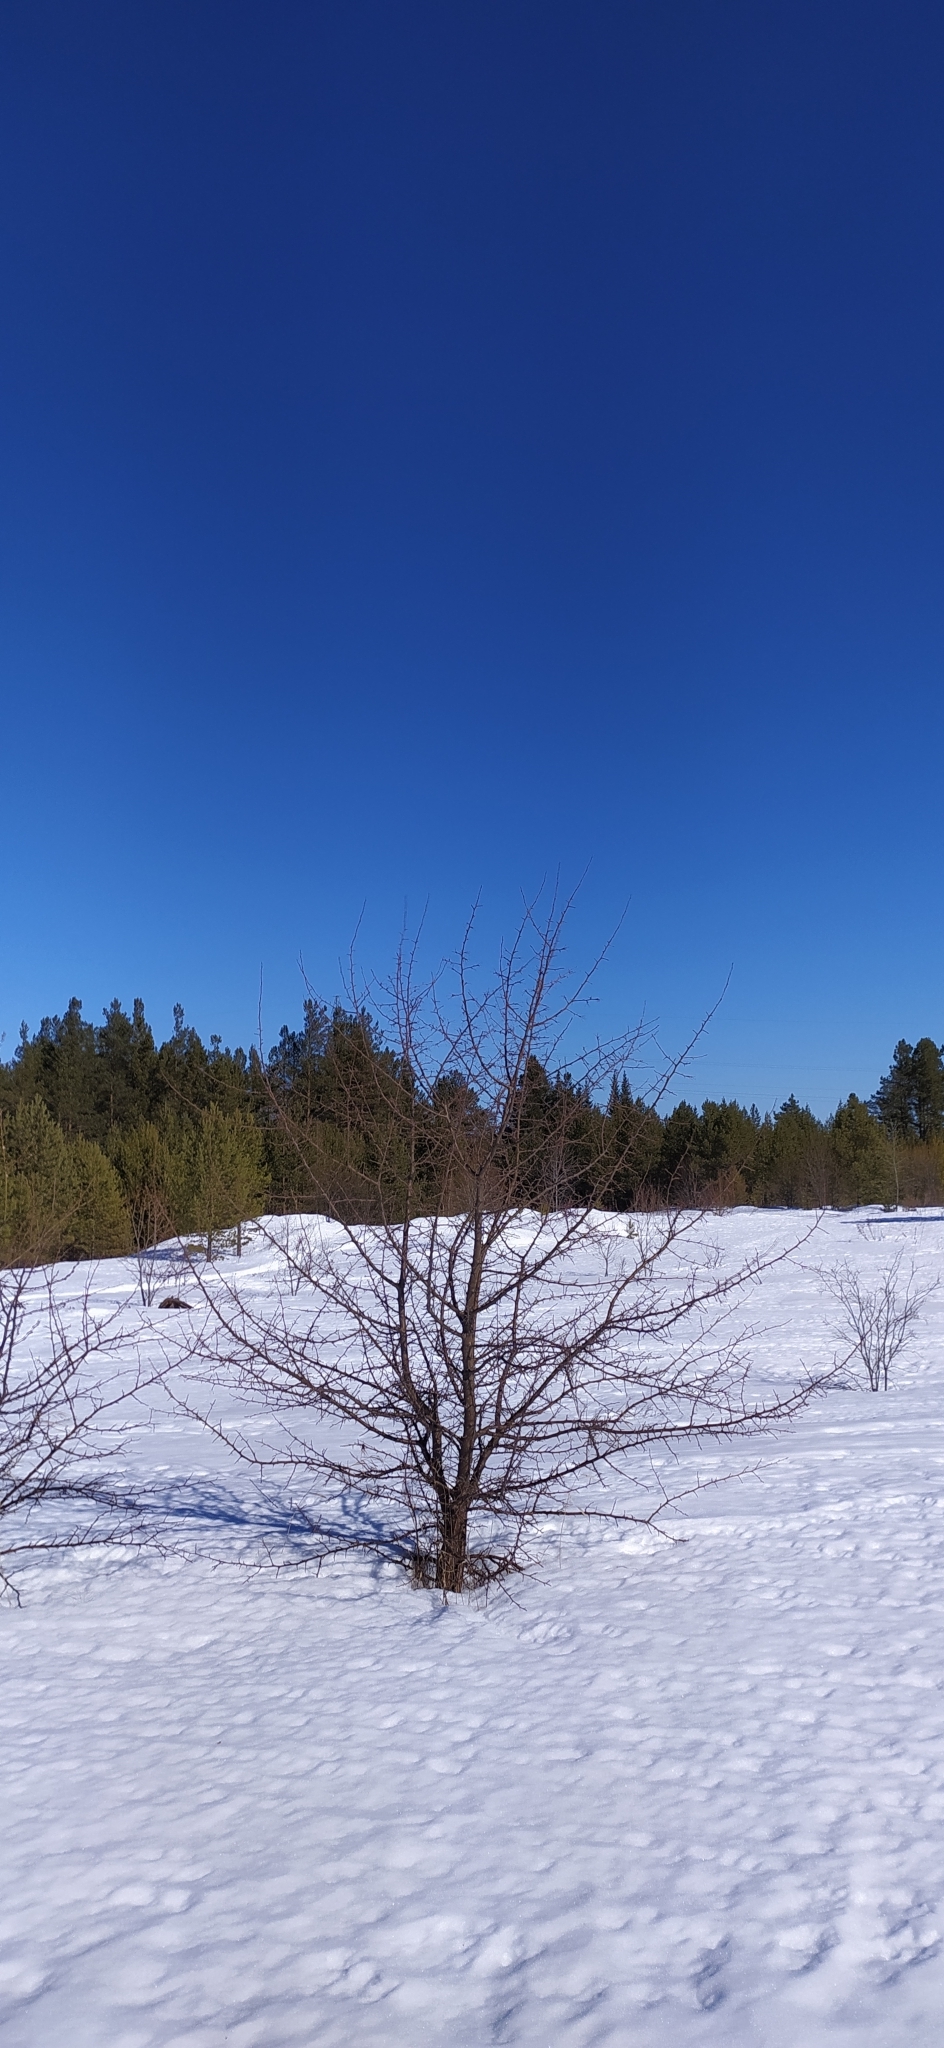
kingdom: Plantae
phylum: Tracheophyta
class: Magnoliopsida
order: Rosales
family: Rosaceae
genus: Malus
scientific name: Malus baccata
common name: Siberian crab
